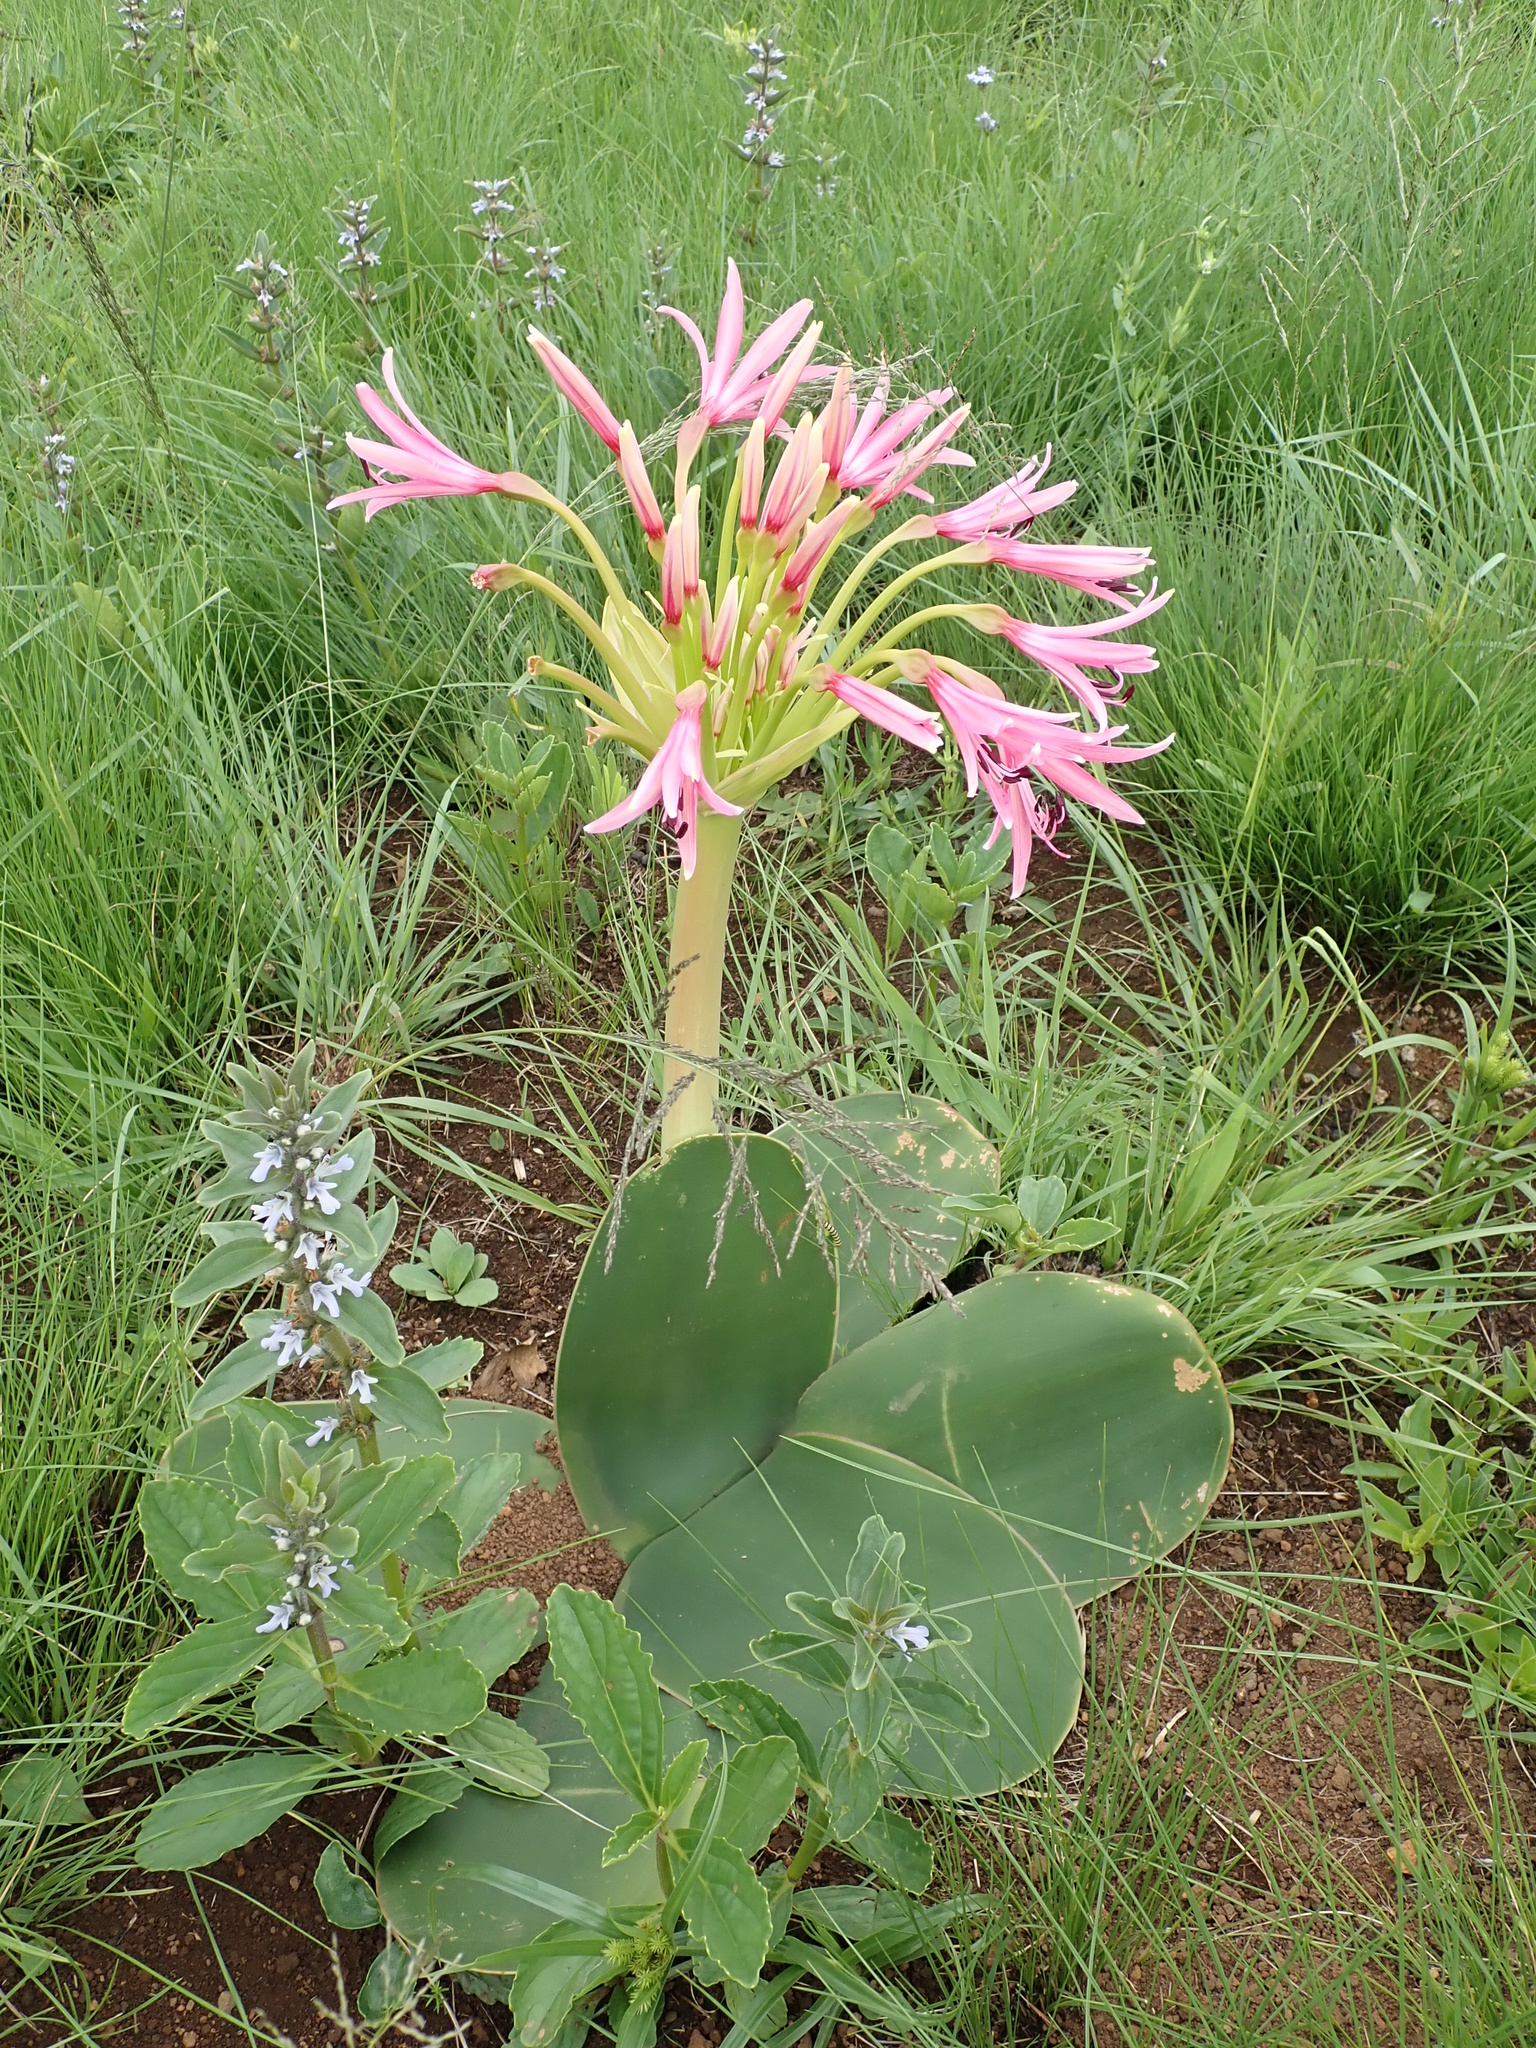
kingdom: Plantae
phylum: Tracheophyta
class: Liliopsida
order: Asparagales
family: Amaryllidaceae
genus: Brunsvigia
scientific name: Brunsvigia radulosa
